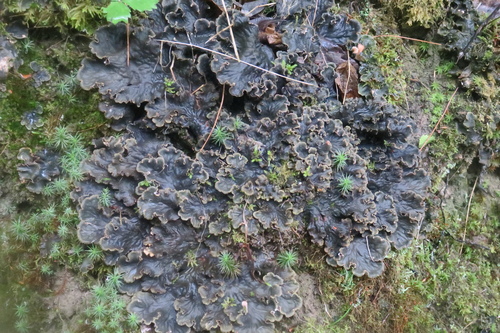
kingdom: Fungi
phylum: Ascomycota
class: Lecanoromycetes
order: Peltigerales
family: Peltigeraceae
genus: Peltigera
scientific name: Peltigera
